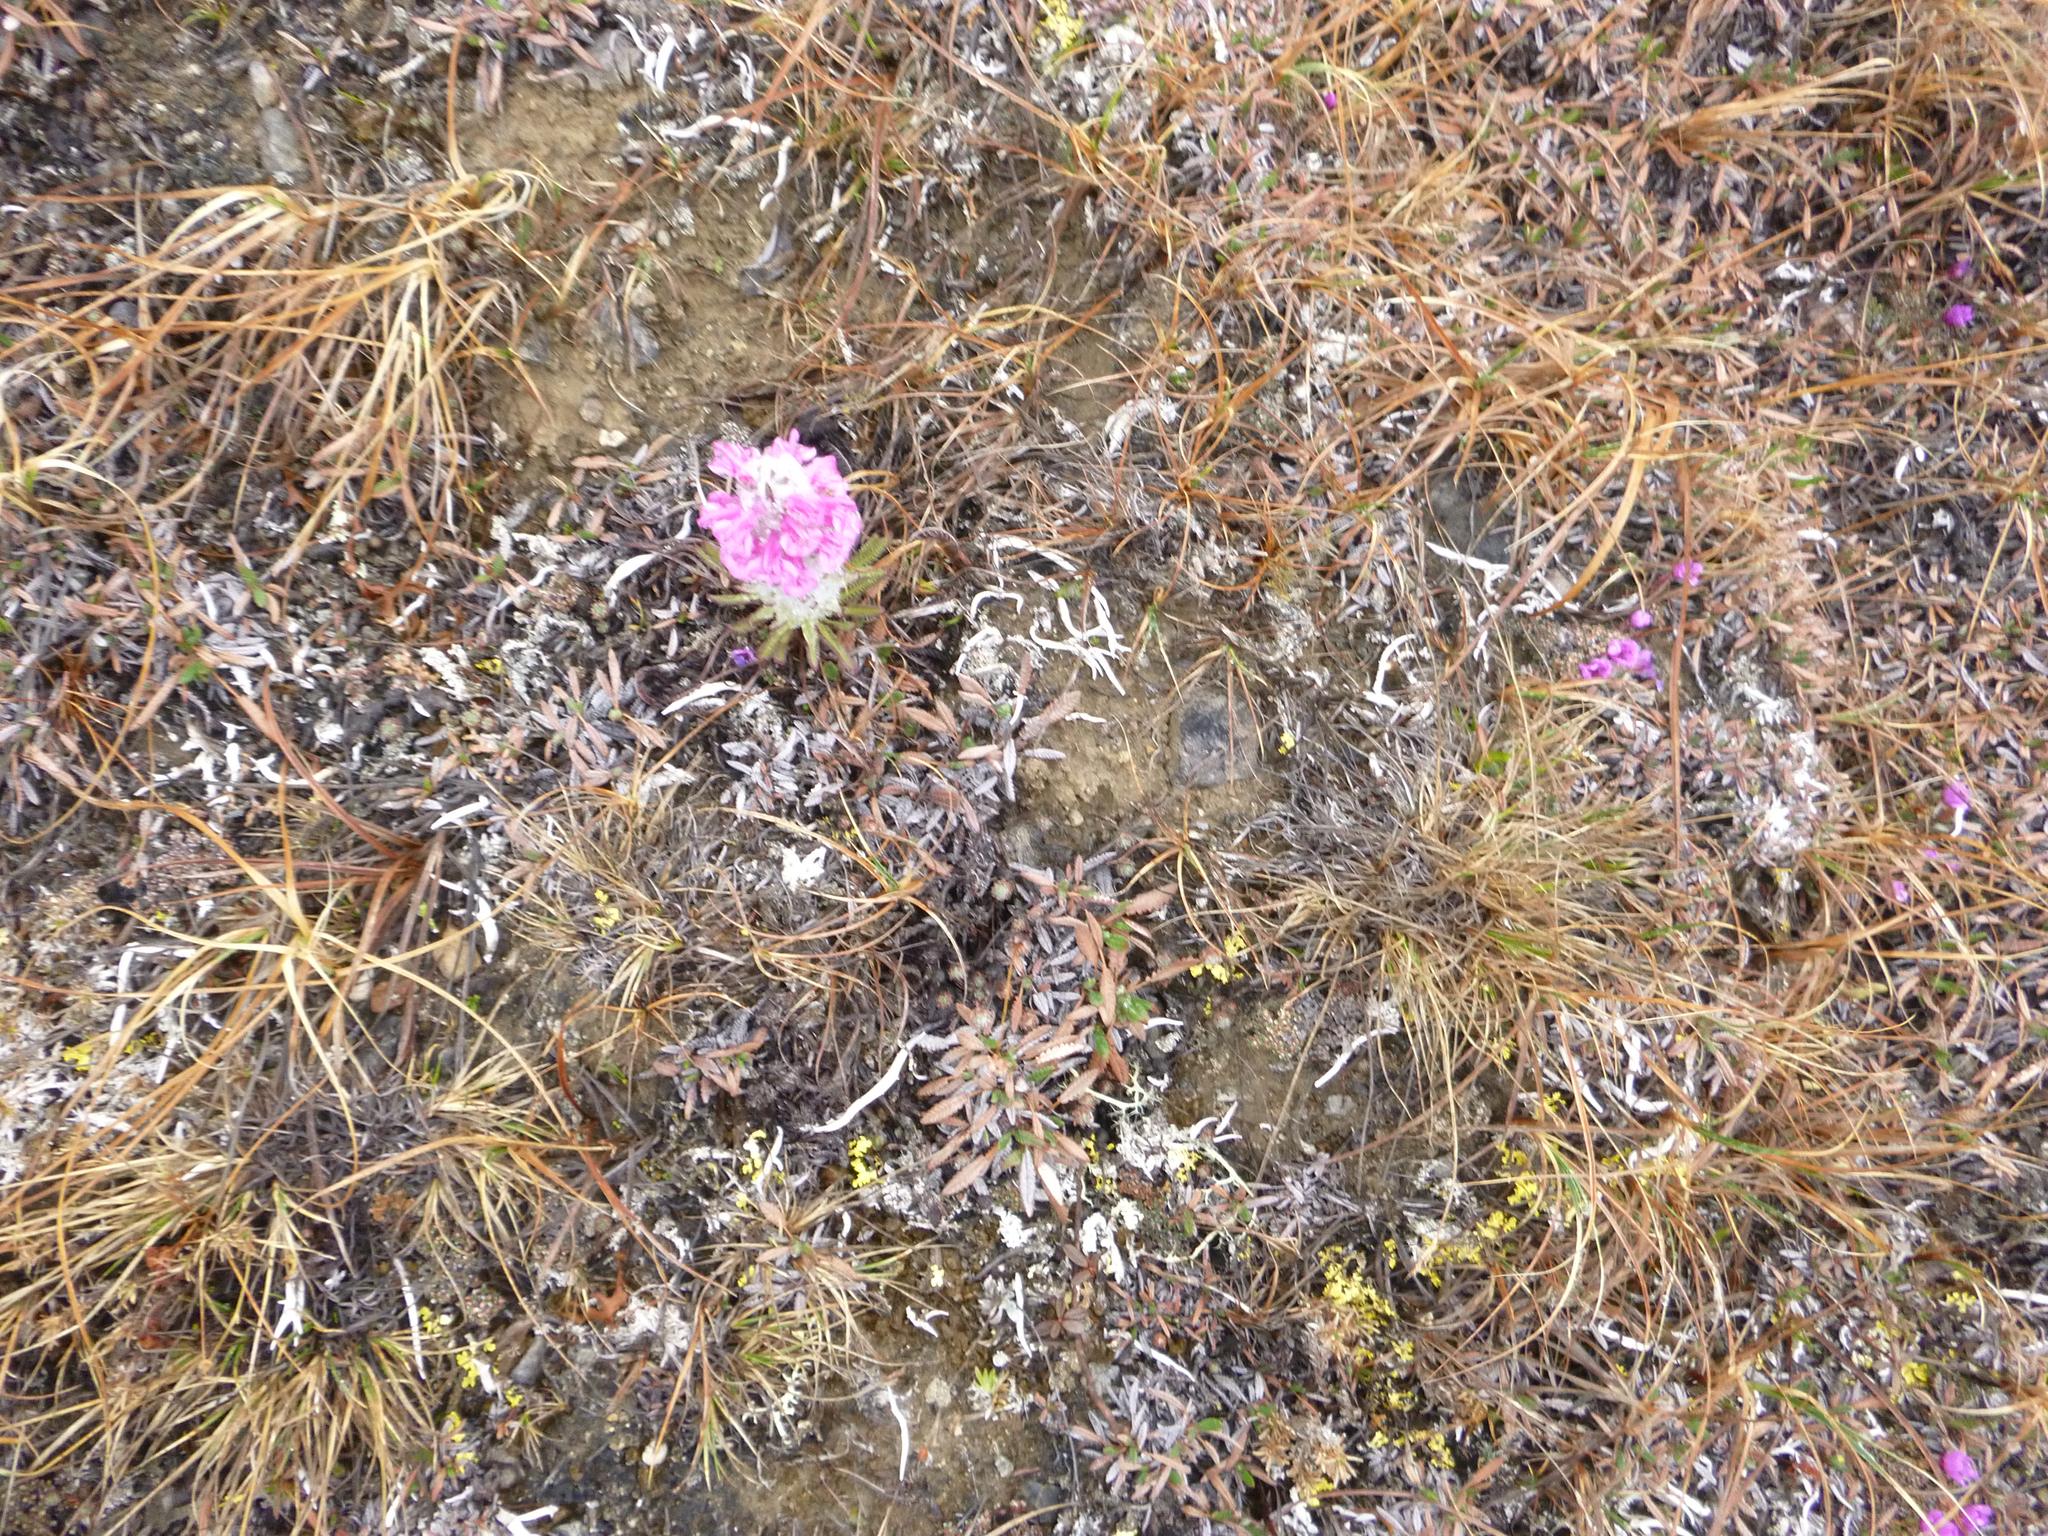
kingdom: Plantae
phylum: Tracheophyta
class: Magnoliopsida
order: Lamiales
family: Orobanchaceae
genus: Pedicularis
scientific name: Pedicularis lanata
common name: Woolly lousewort
